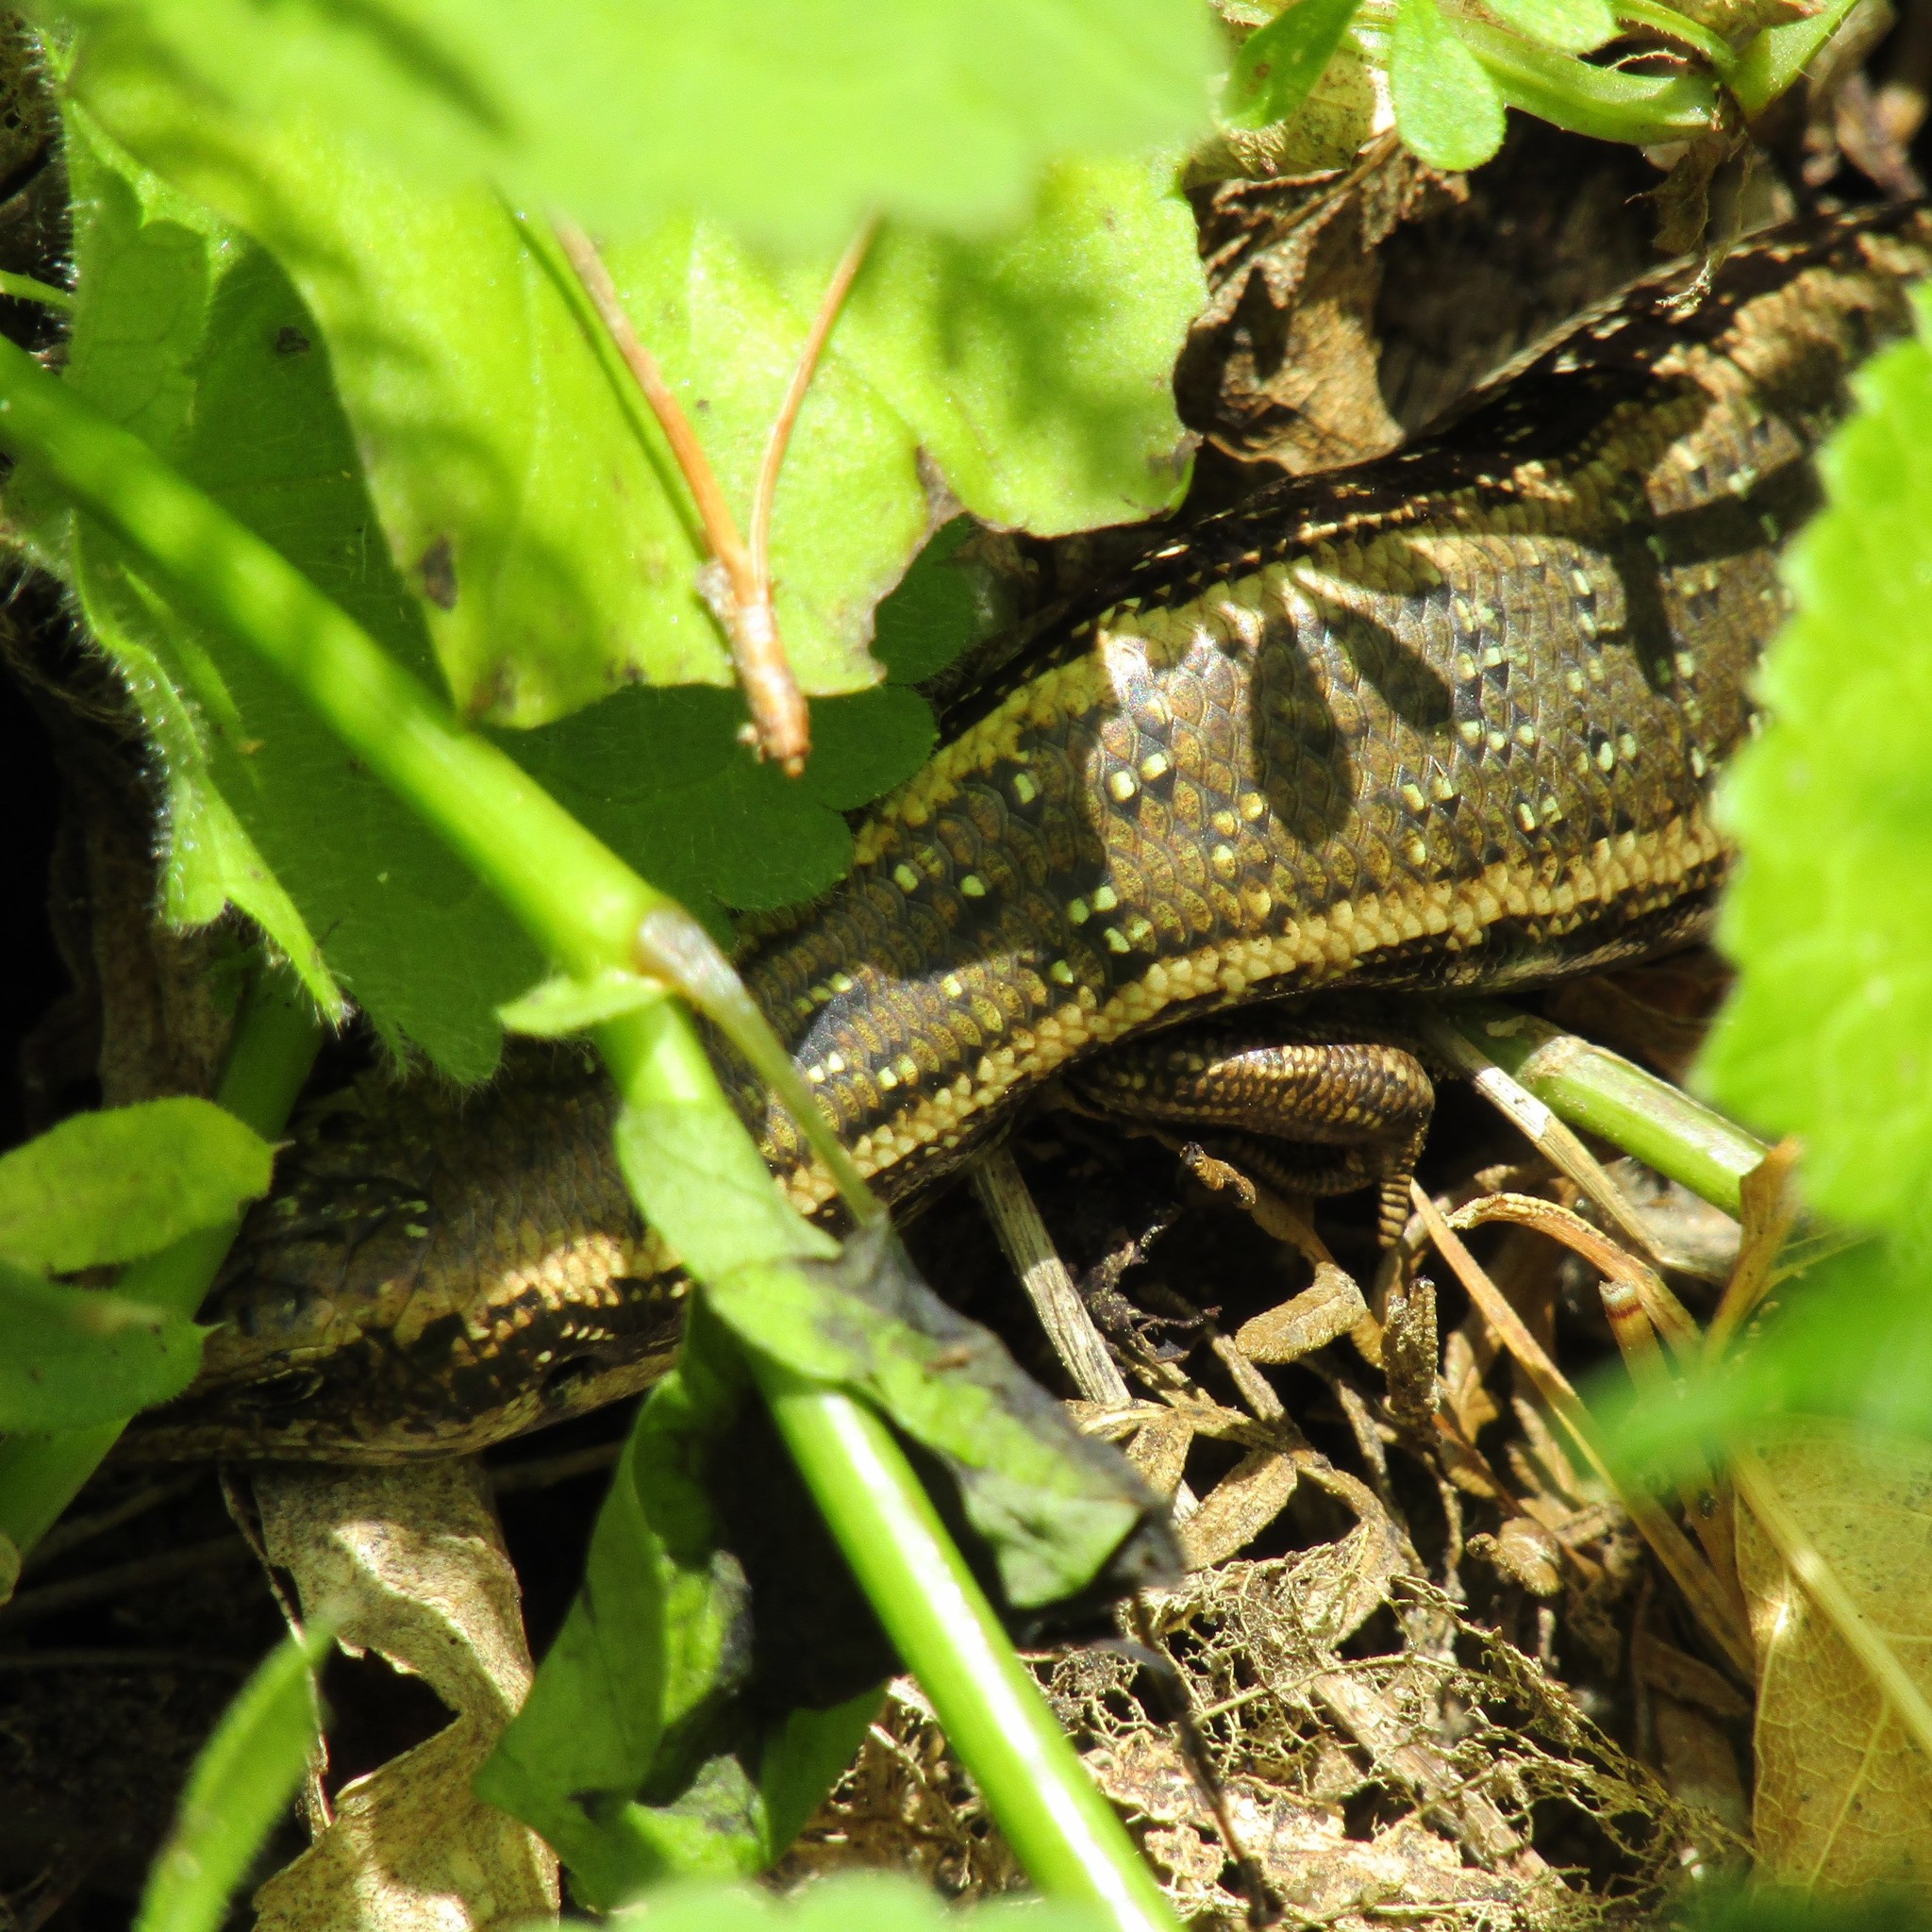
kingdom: Animalia
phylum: Chordata
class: Squamata
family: Scincidae
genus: Oligosoma
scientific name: Oligosoma kokowai
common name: Northern spotted skink
